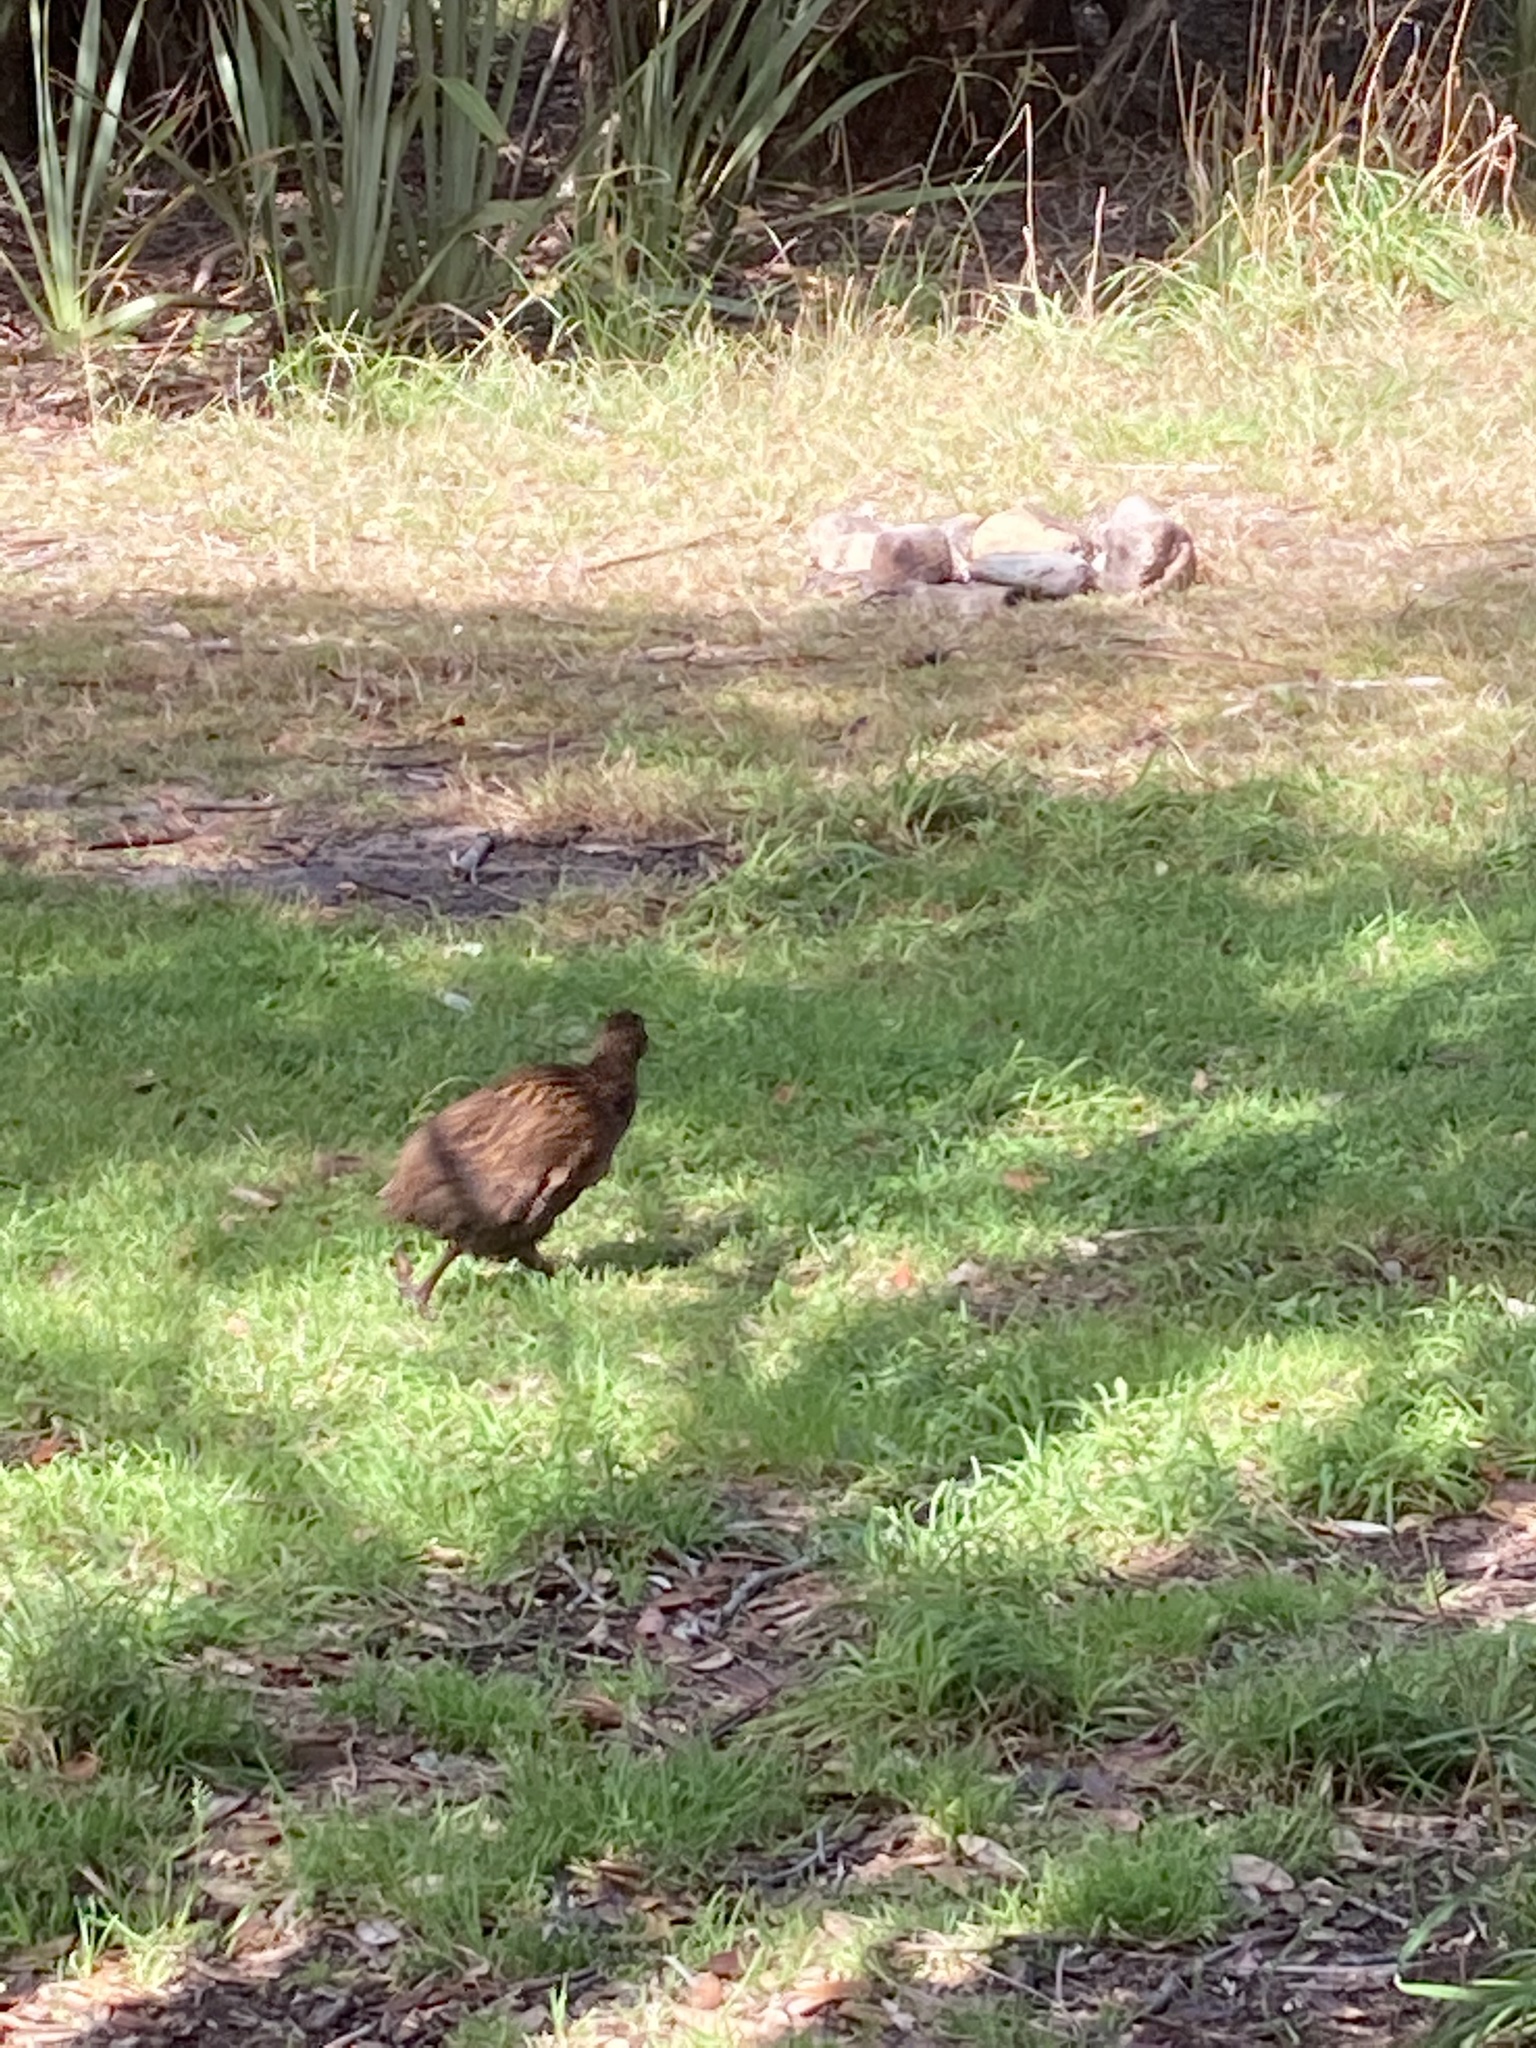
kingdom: Animalia
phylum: Chordata
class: Aves
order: Gruiformes
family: Rallidae
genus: Gallirallus
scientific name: Gallirallus australis
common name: Weka
